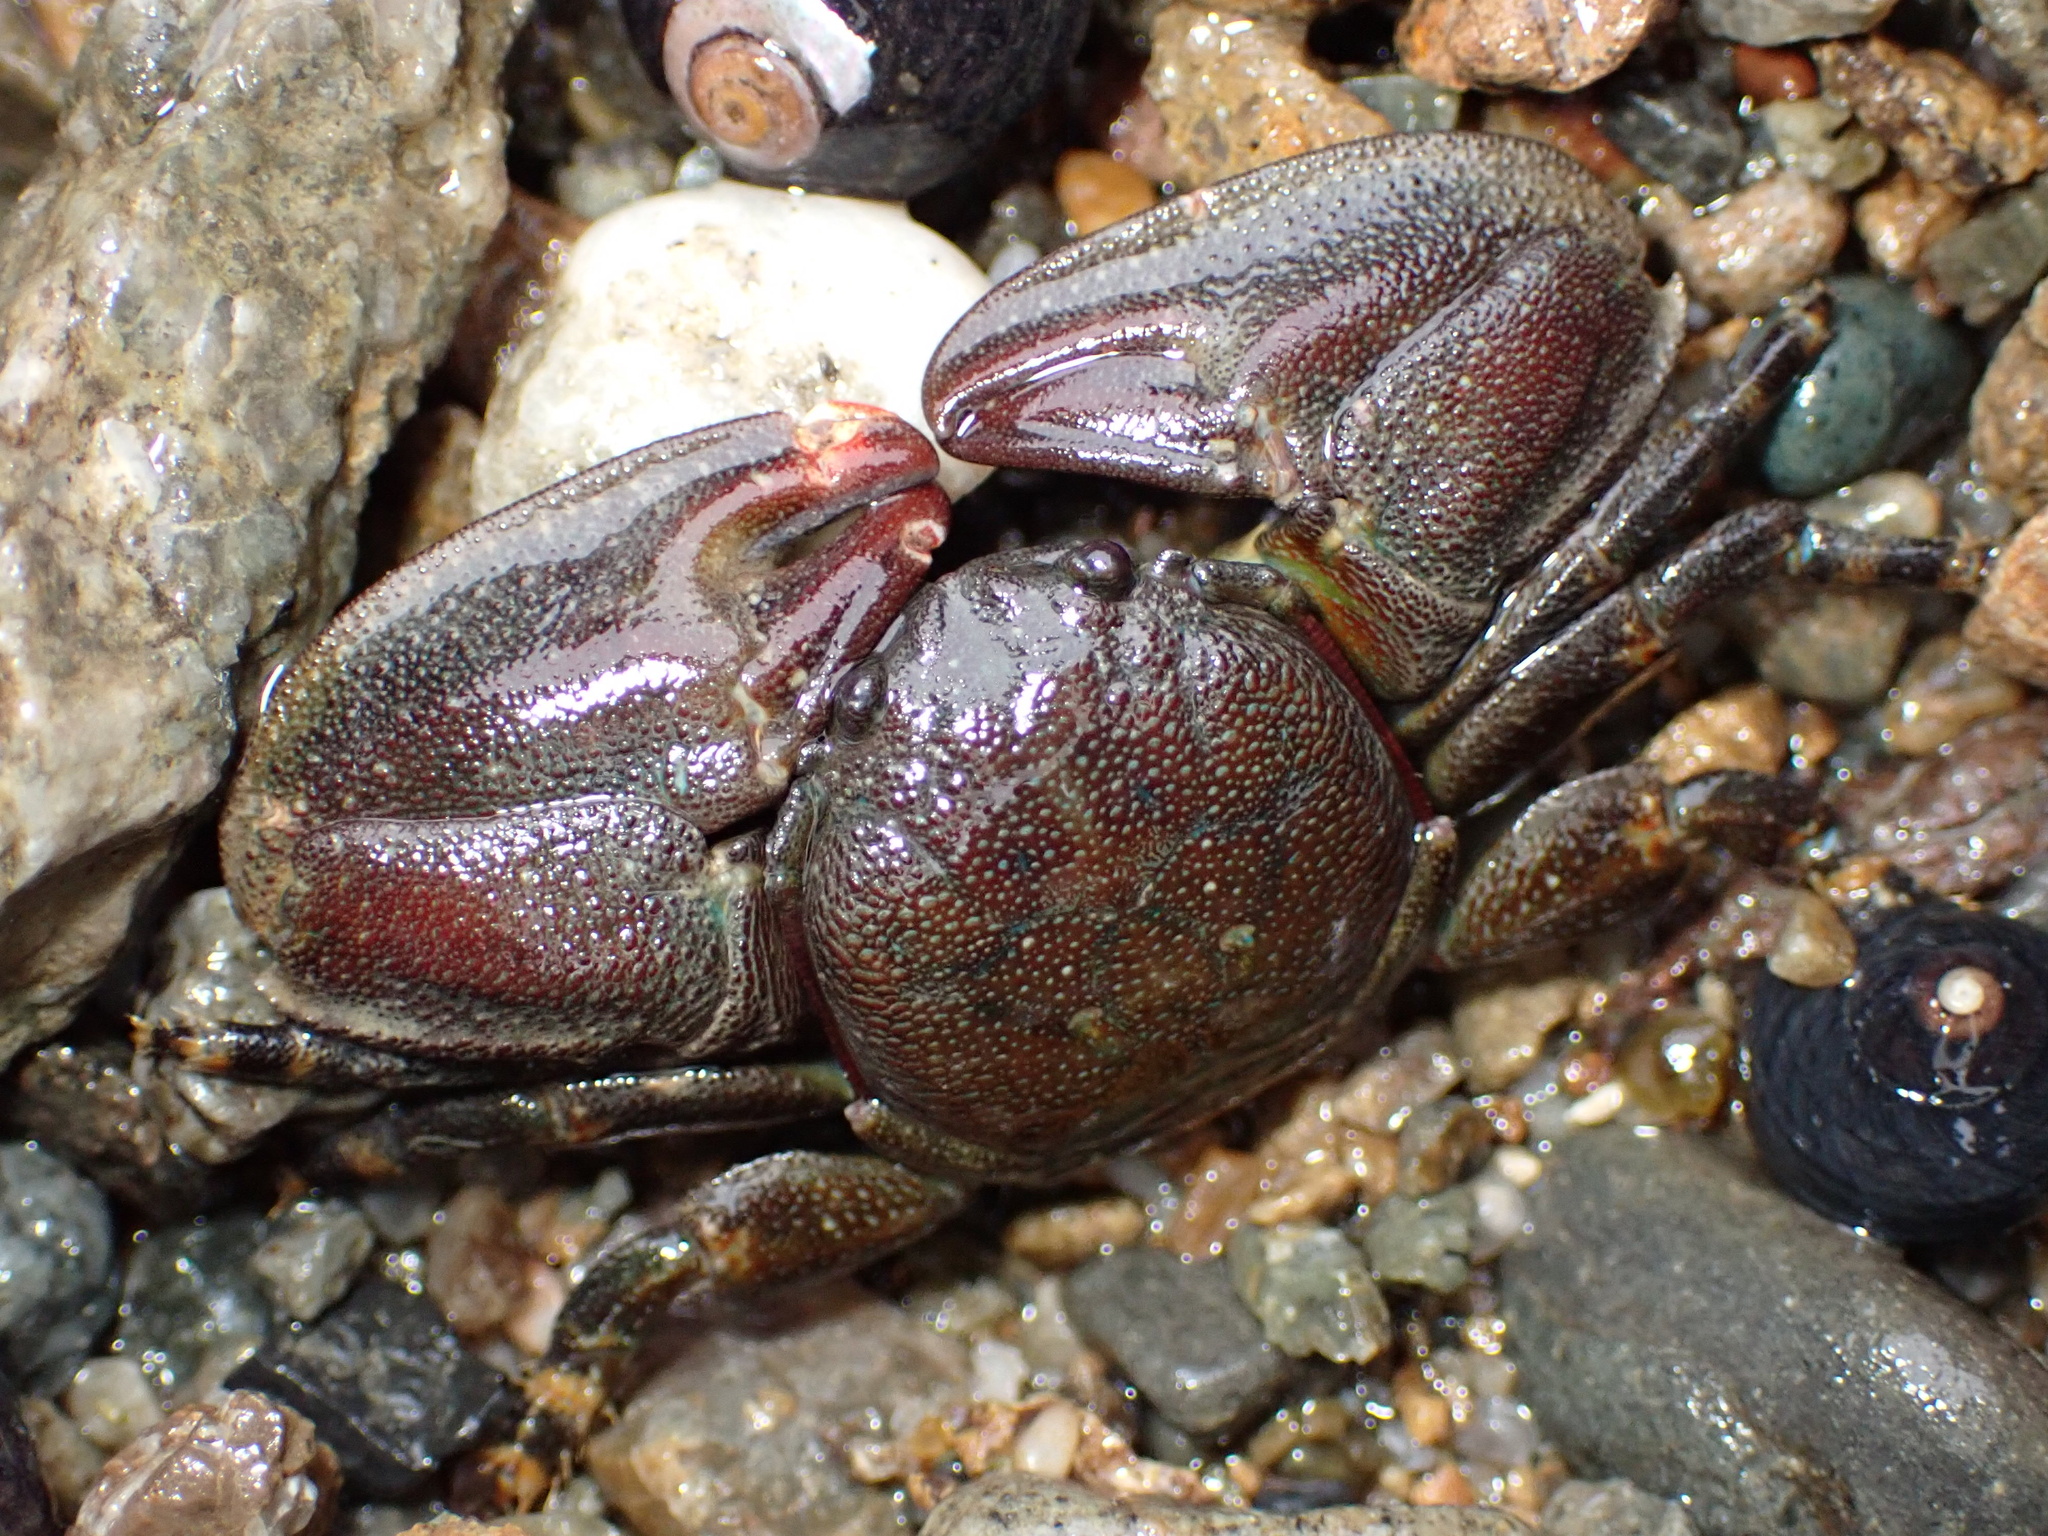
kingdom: Animalia
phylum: Arthropoda
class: Malacostraca
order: Decapoda
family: Porcellanidae
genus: Petrolisthes
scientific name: Petrolisthes cinctipes
